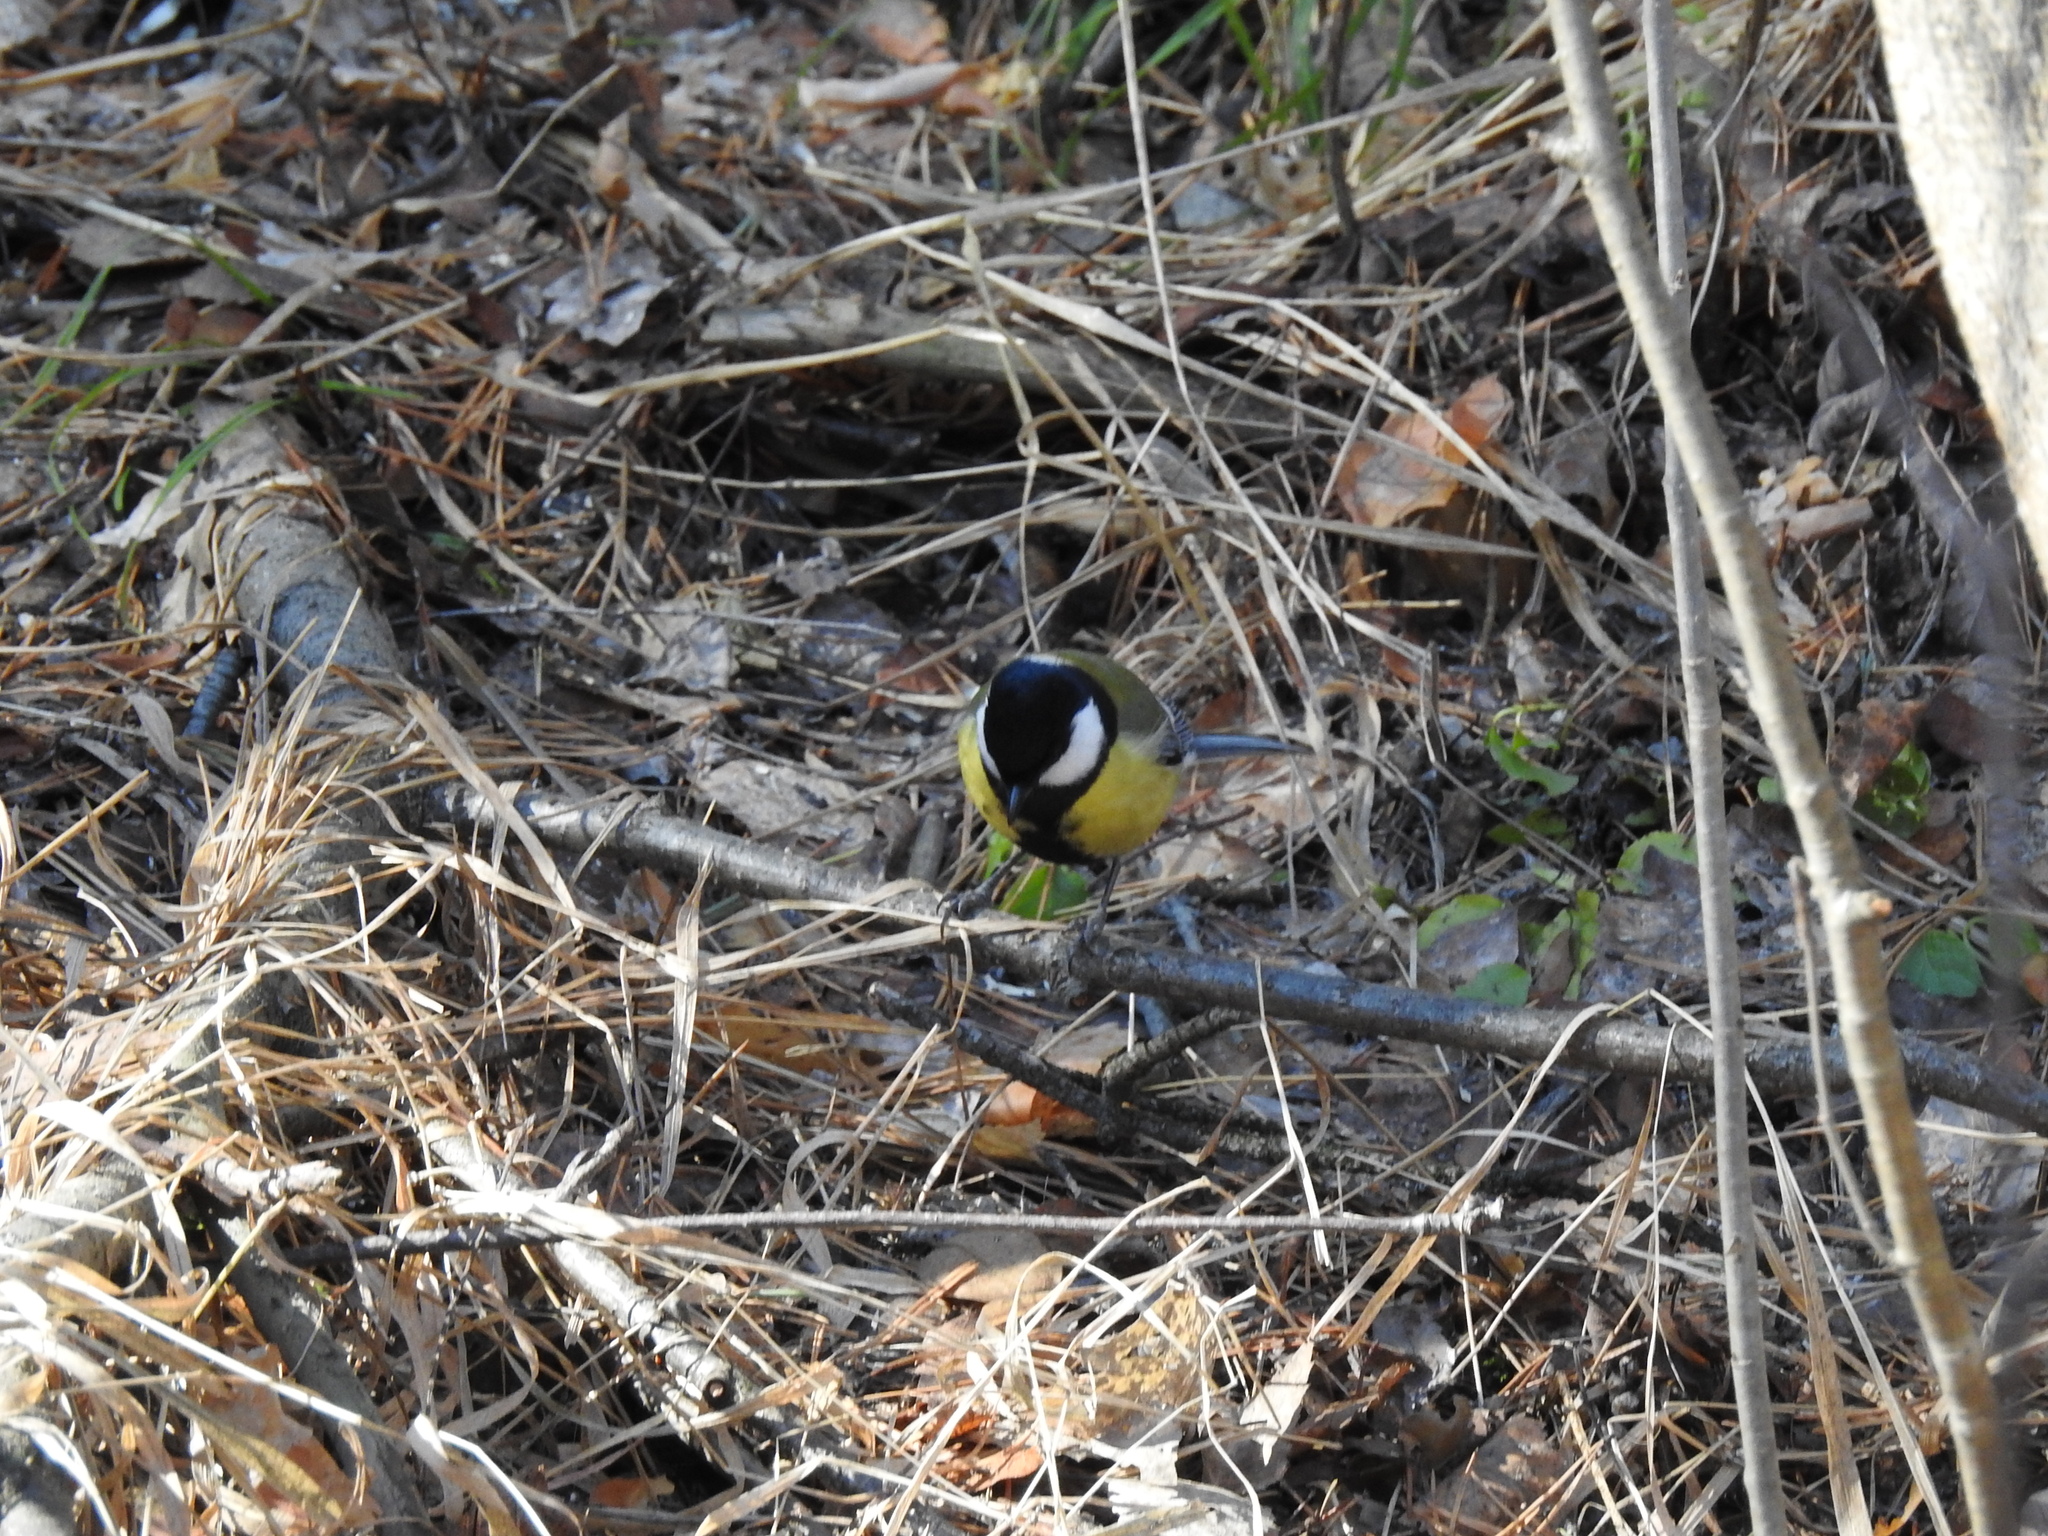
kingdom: Animalia
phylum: Chordata
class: Aves
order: Passeriformes
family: Paridae
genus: Parus
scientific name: Parus major
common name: Great tit
